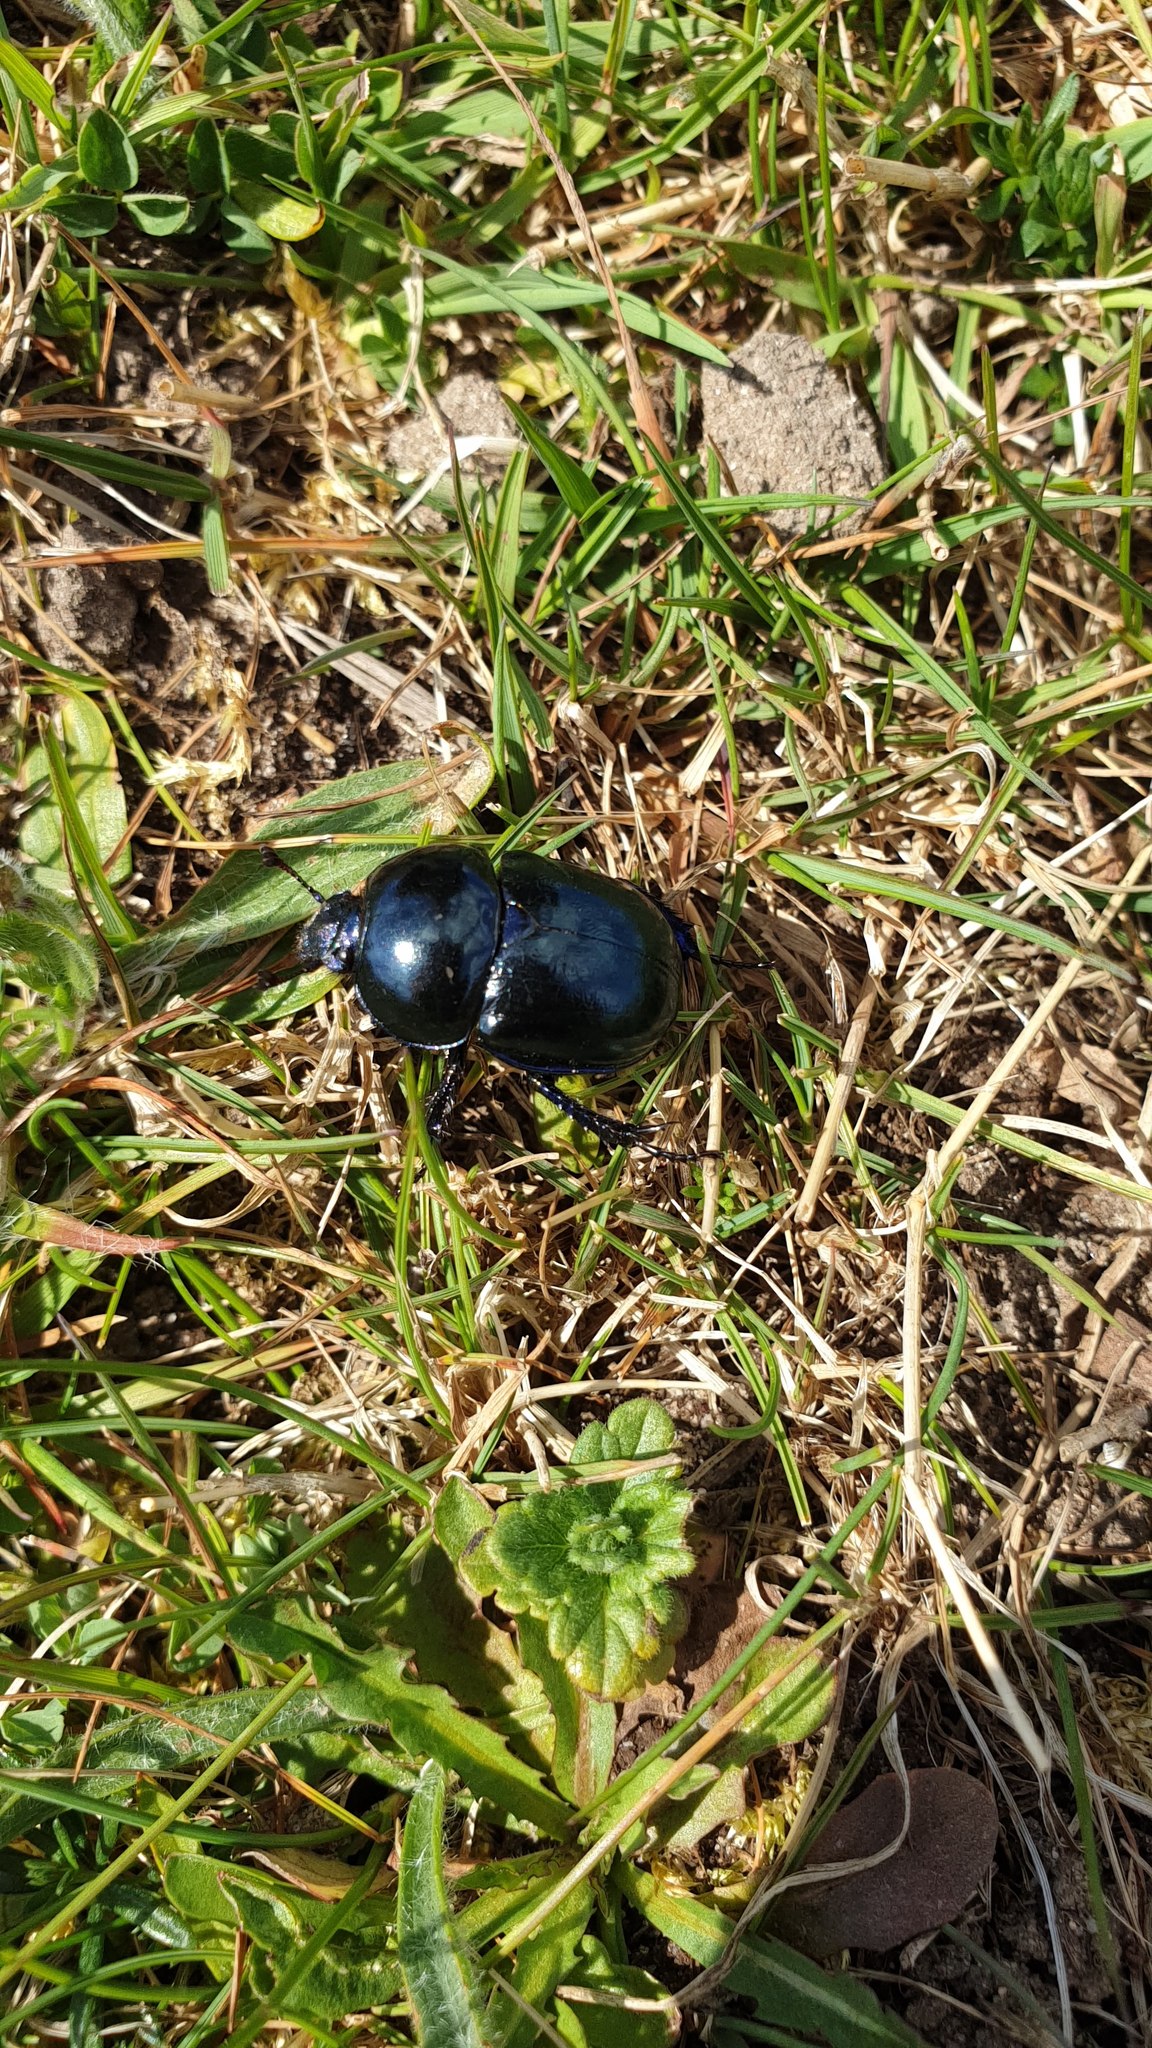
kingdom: Animalia
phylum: Arthropoda
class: Insecta
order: Coleoptera
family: Geotrupidae
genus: Trypocopris
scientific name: Trypocopris vernalis
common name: Spring dumbledor
